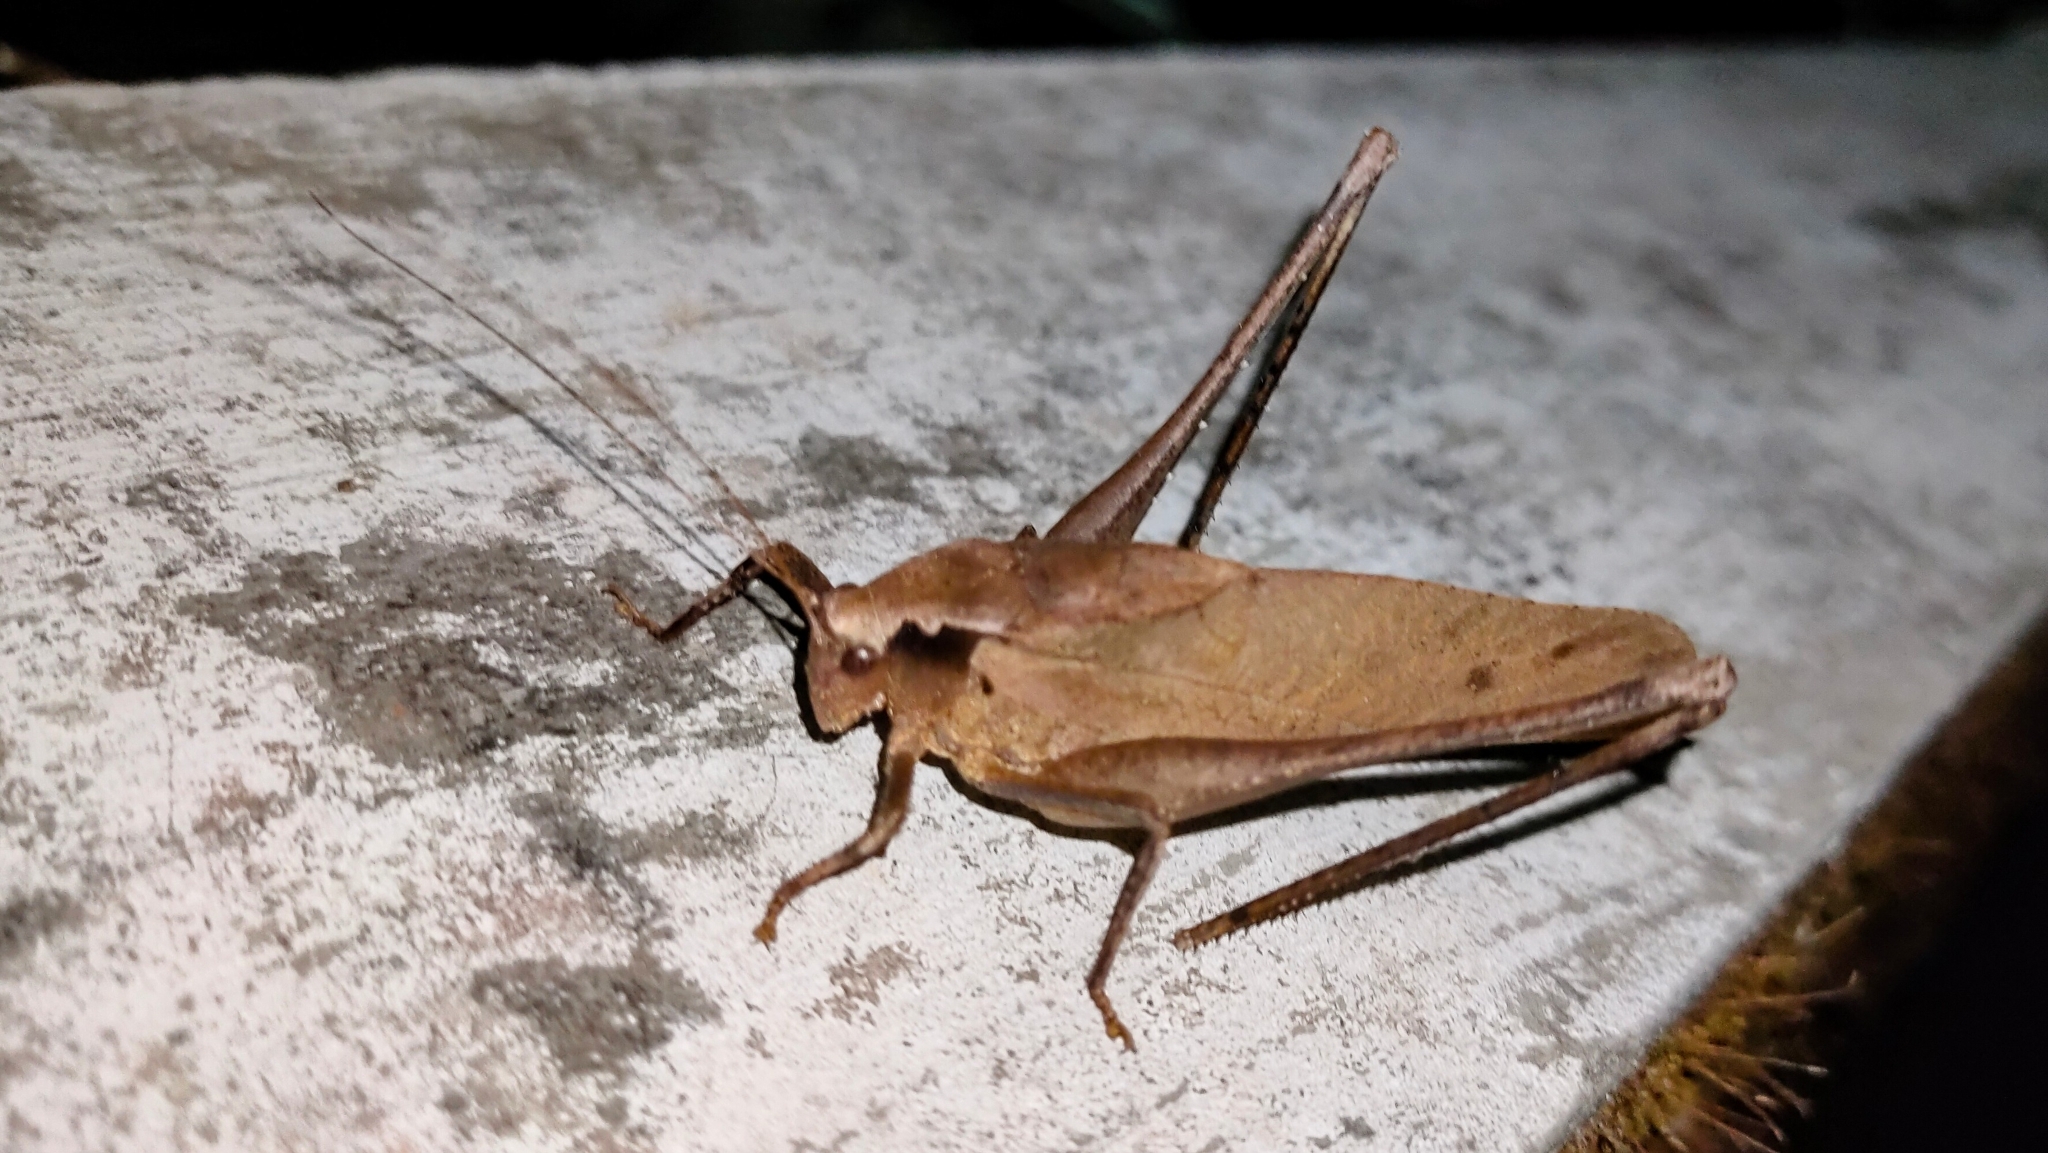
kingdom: Animalia
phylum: Arthropoda
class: Insecta
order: Orthoptera
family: Tettigoniidae
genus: Mecopoda
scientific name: Mecopoda elongata
